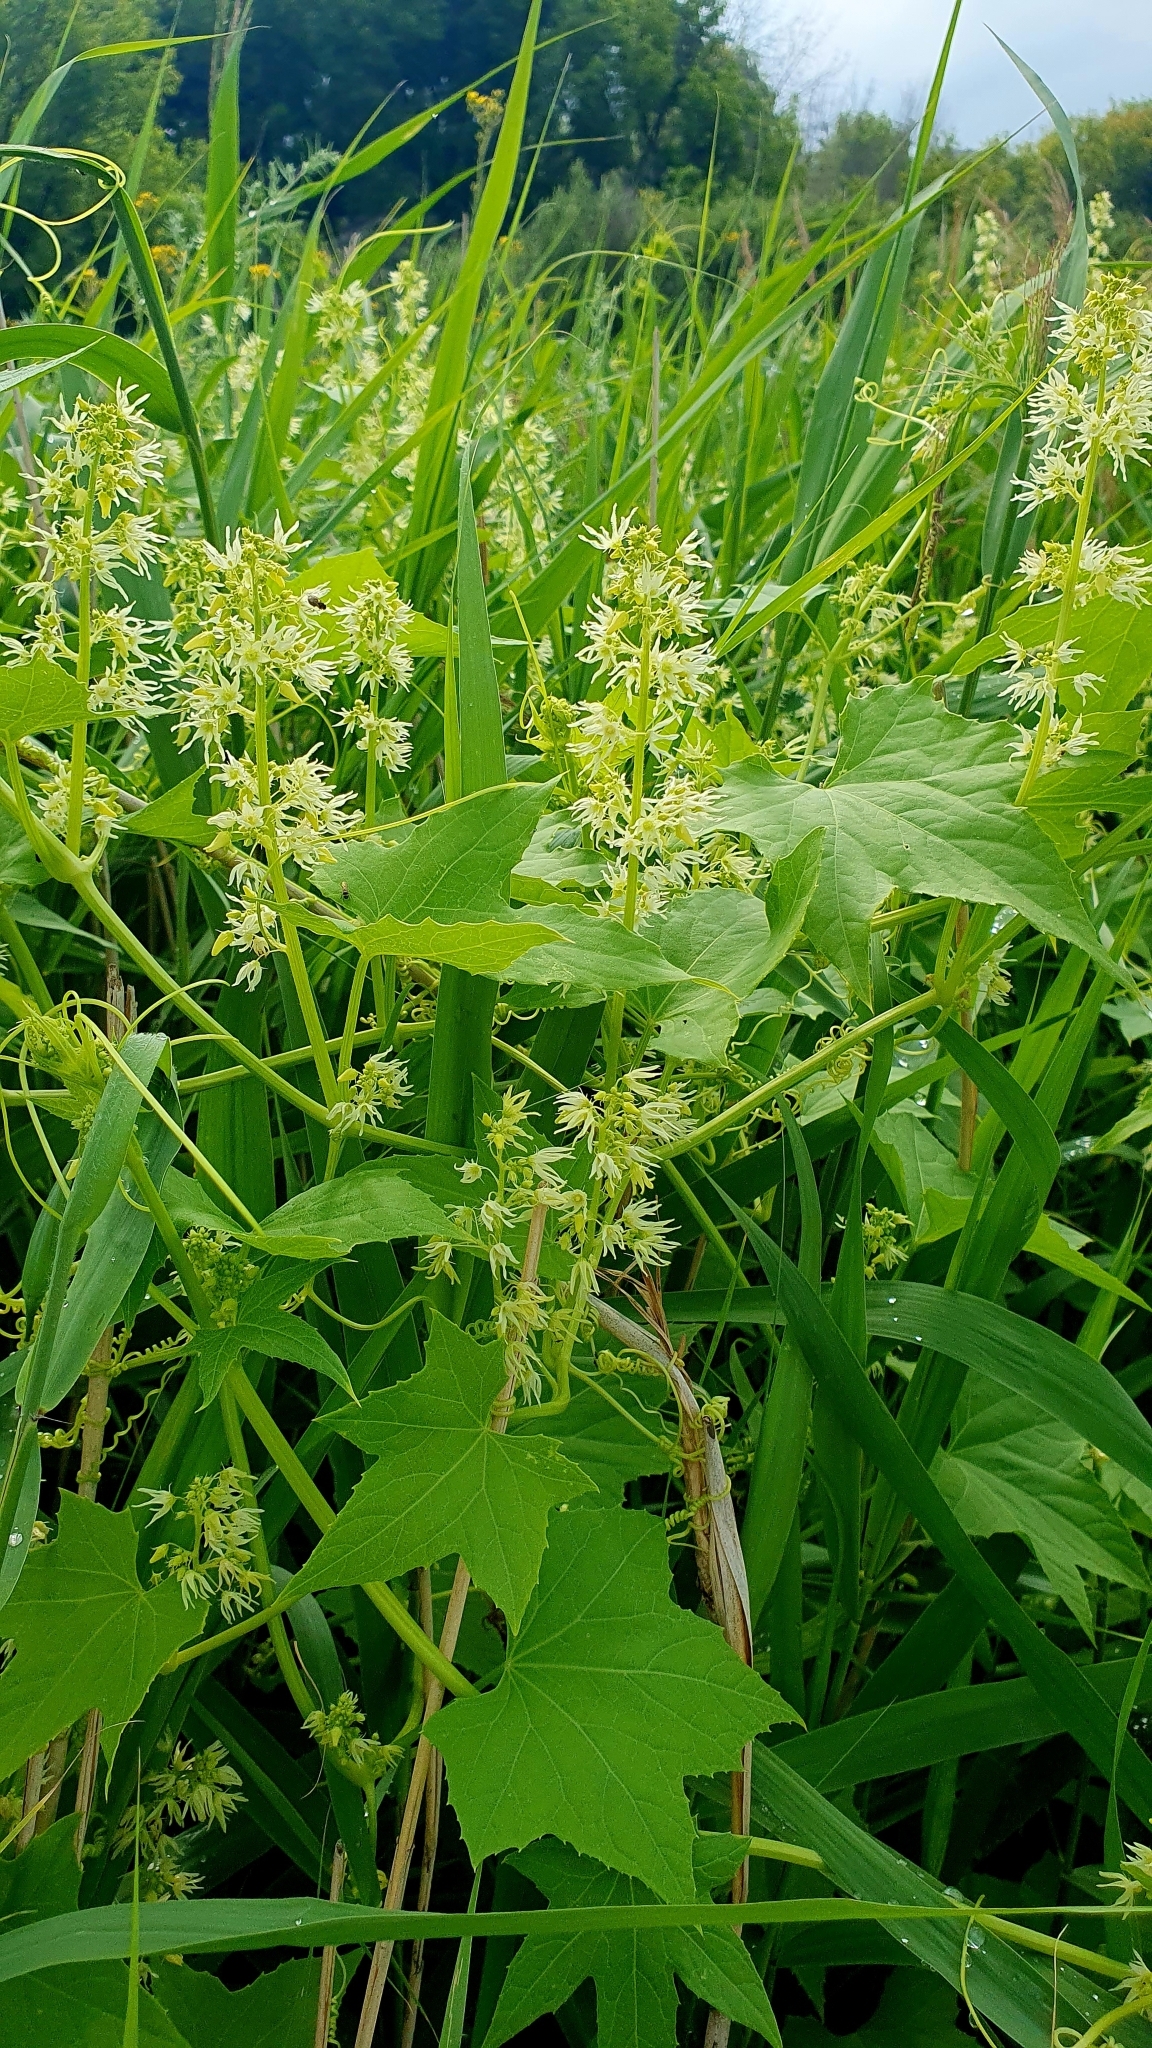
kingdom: Plantae
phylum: Tracheophyta
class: Magnoliopsida
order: Cucurbitales
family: Cucurbitaceae
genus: Echinocystis
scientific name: Echinocystis lobata
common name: Wild cucumber
